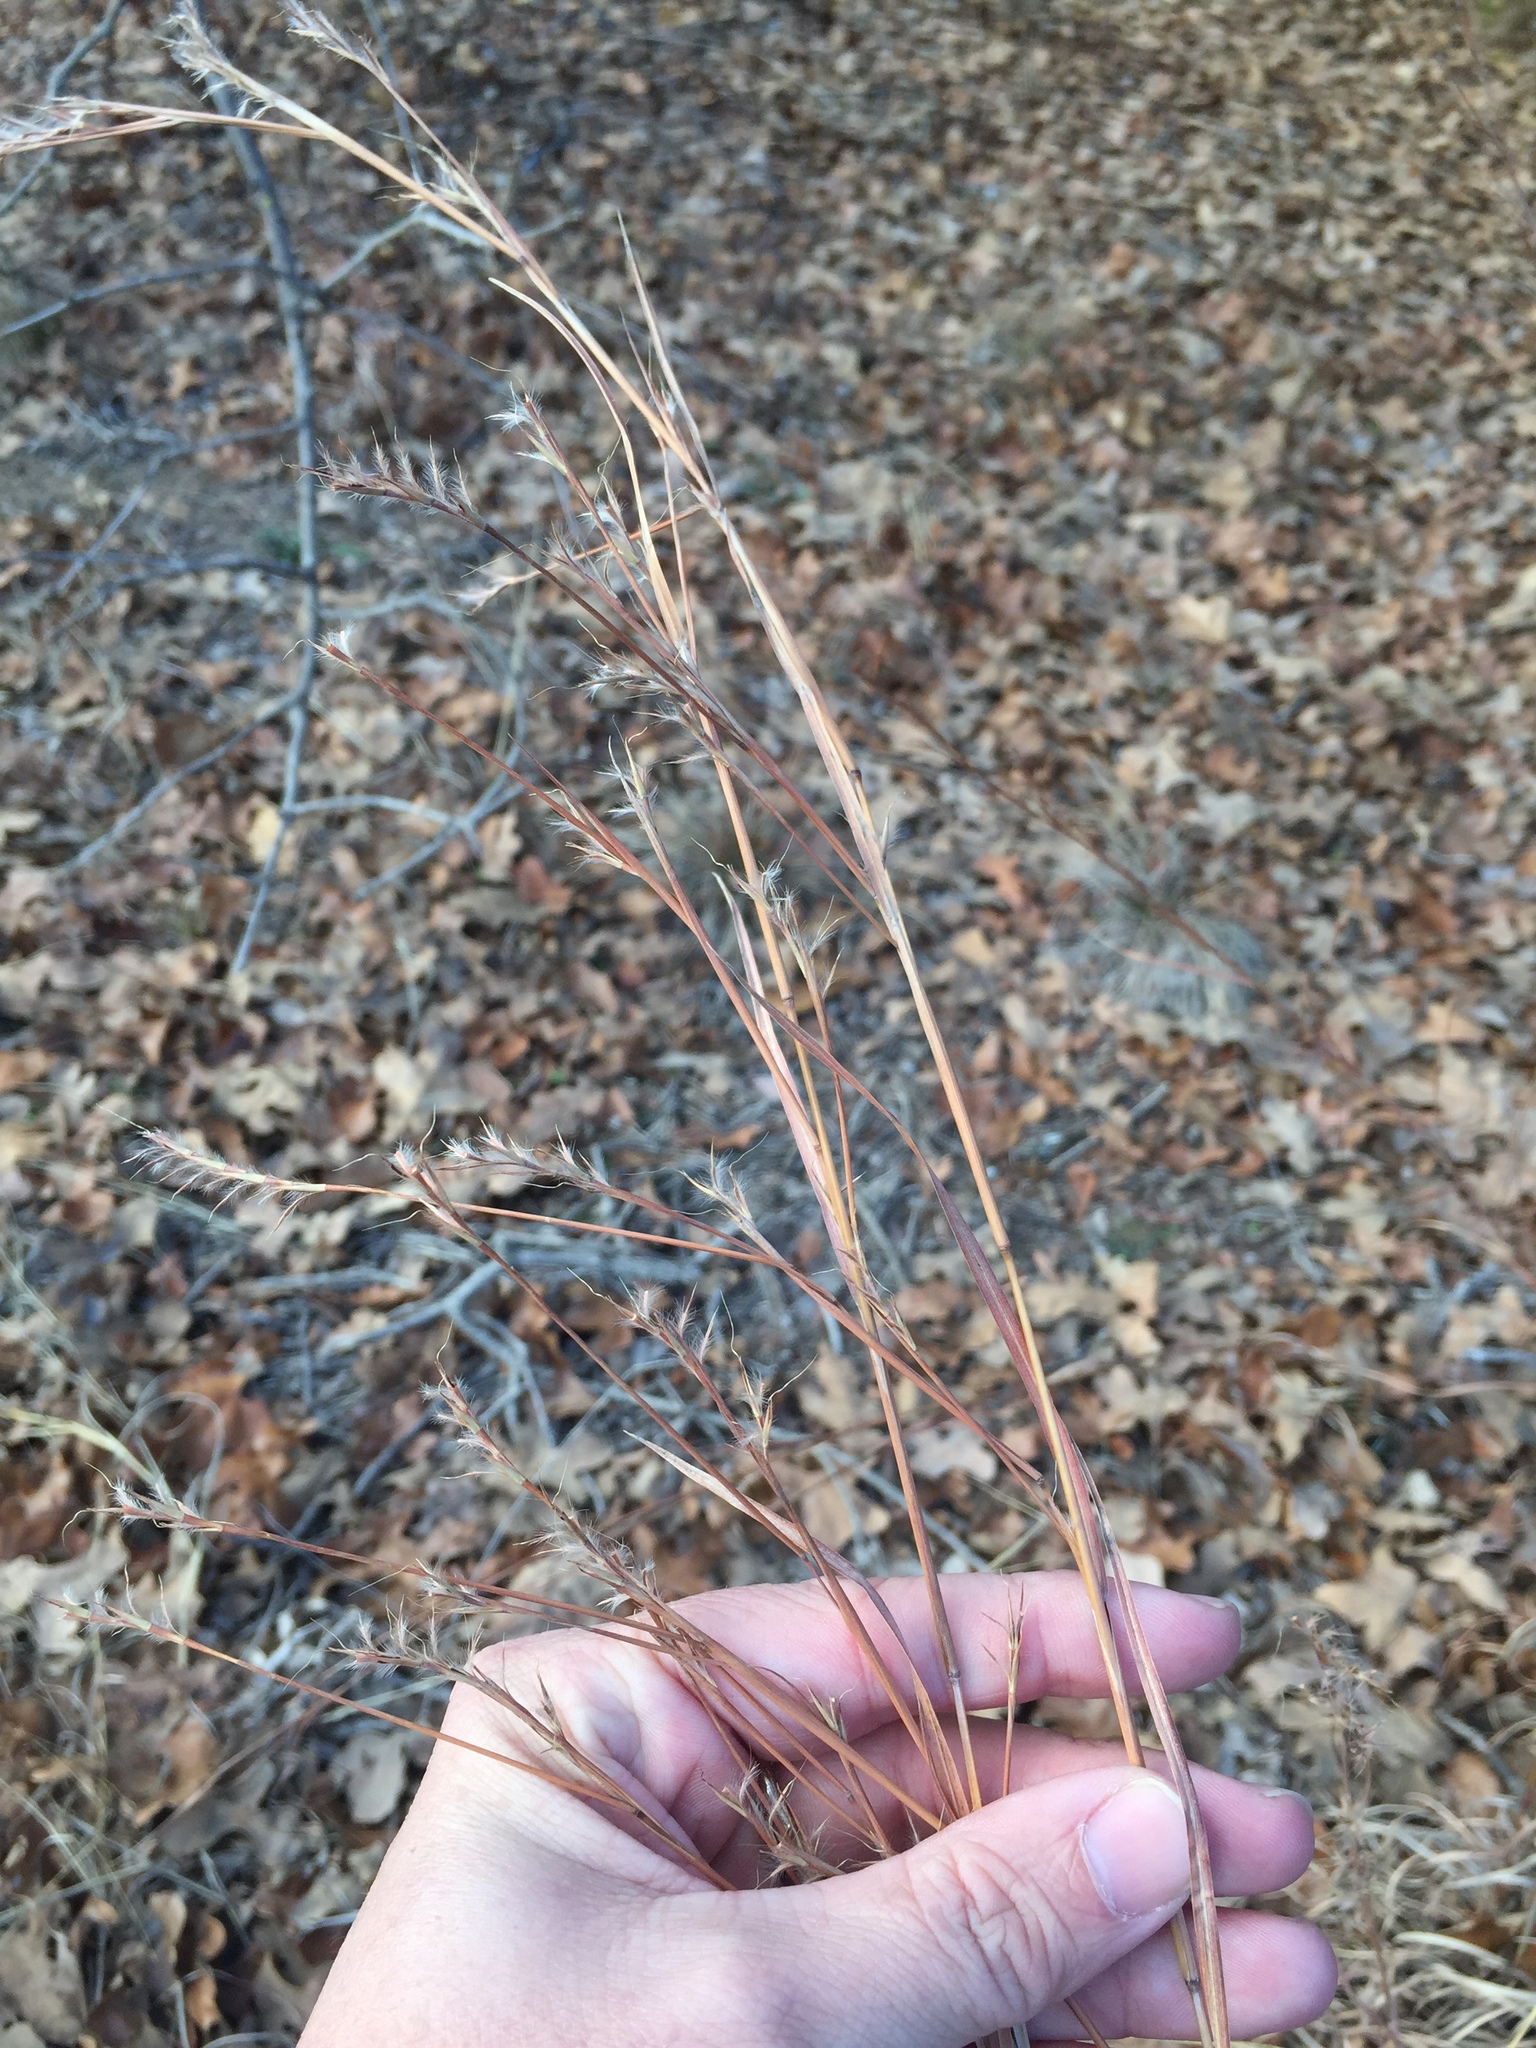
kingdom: Plantae
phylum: Tracheophyta
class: Liliopsida
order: Poales
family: Poaceae
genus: Schizachyrium
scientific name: Schizachyrium scoparium
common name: Little bluestem
